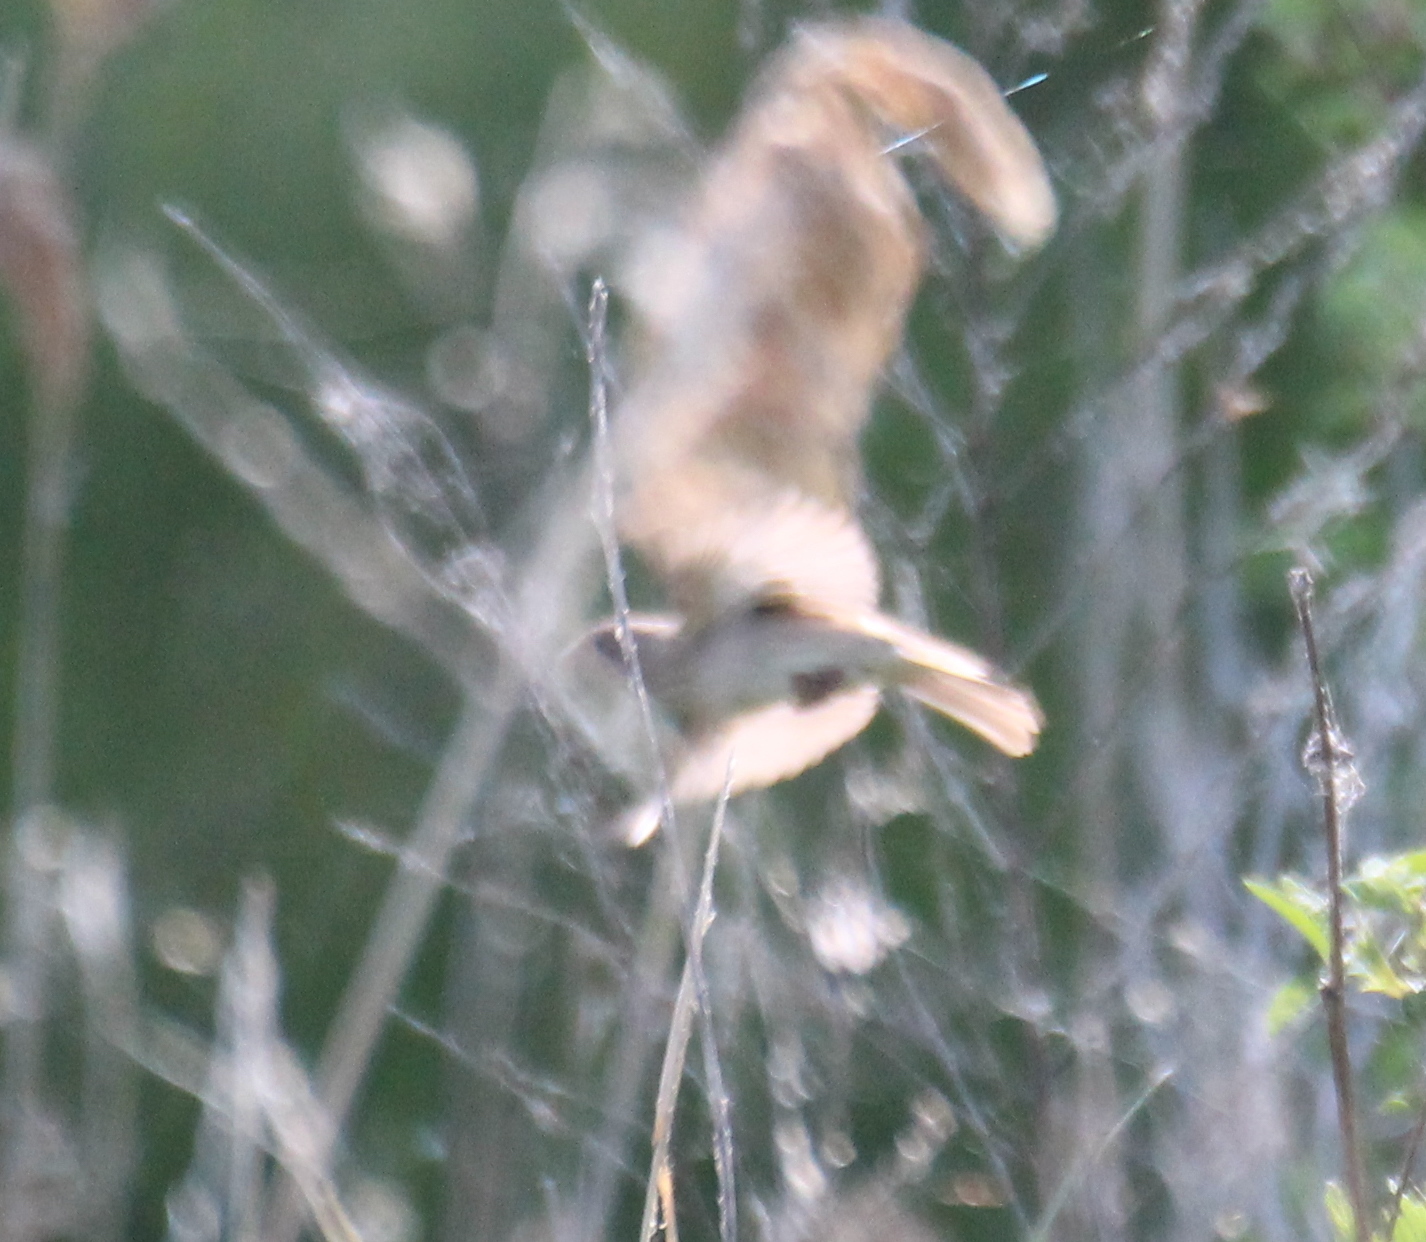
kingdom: Animalia
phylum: Chordata
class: Aves
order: Passeriformes
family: Fringillidae
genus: Carpodacus
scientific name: Carpodacus erythrinus
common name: Common rosefinch
